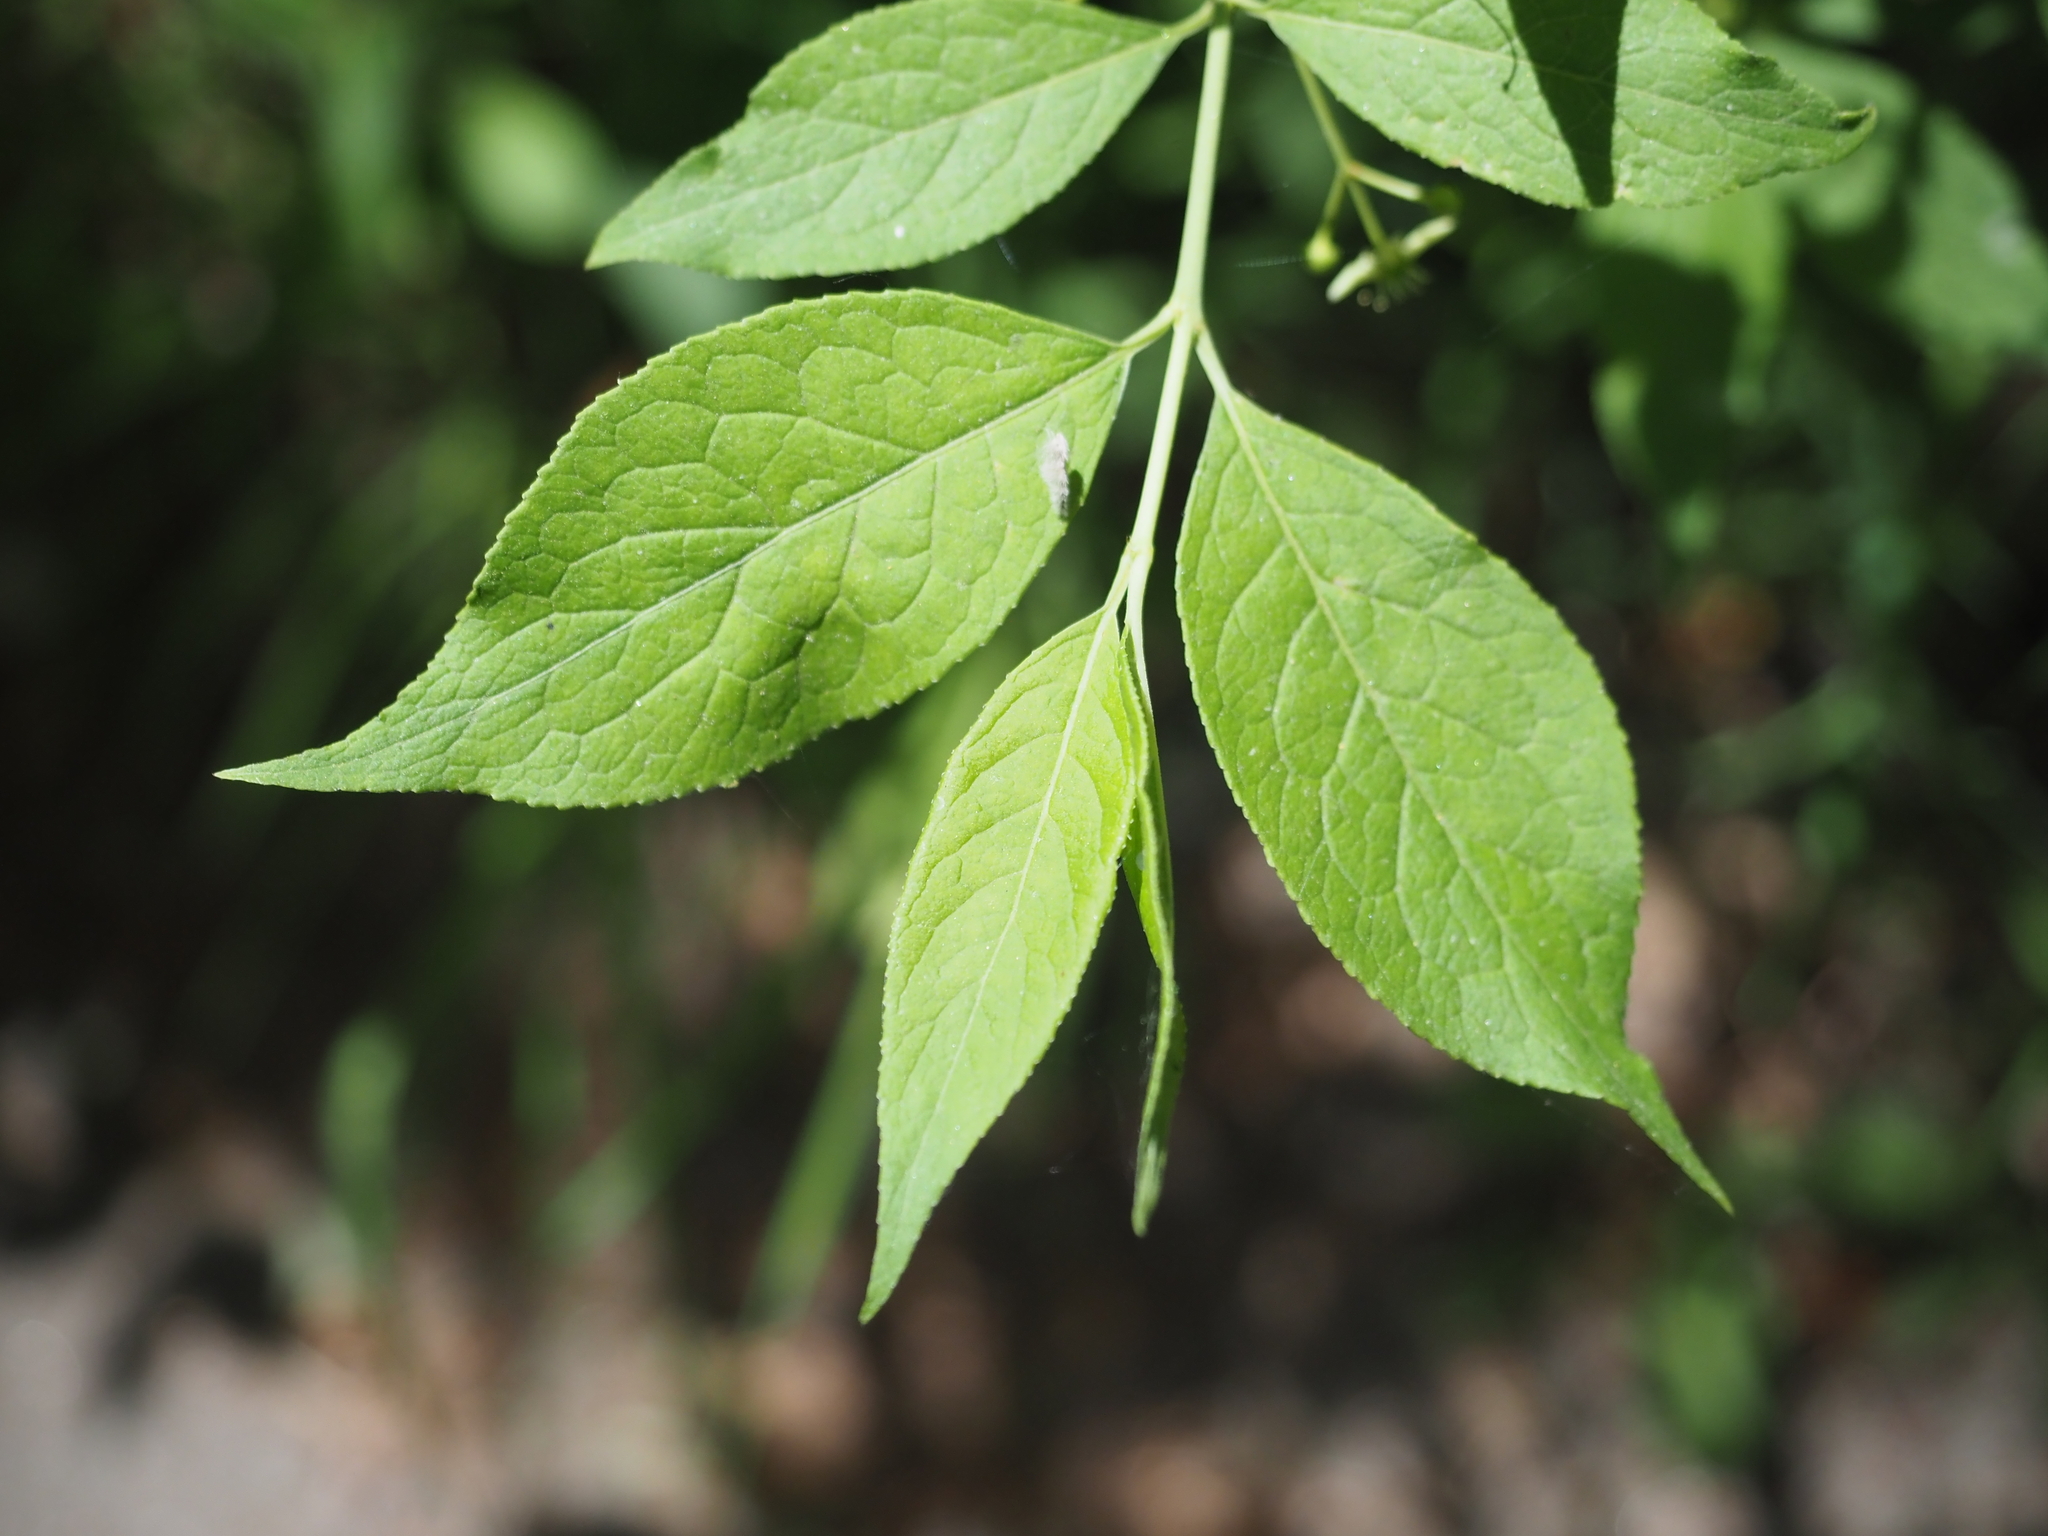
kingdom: Plantae
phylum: Tracheophyta
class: Magnoliopsida
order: Celastrales
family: Celastraceae
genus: Euonymus
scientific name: Euonymus europaeus
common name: Spindle
